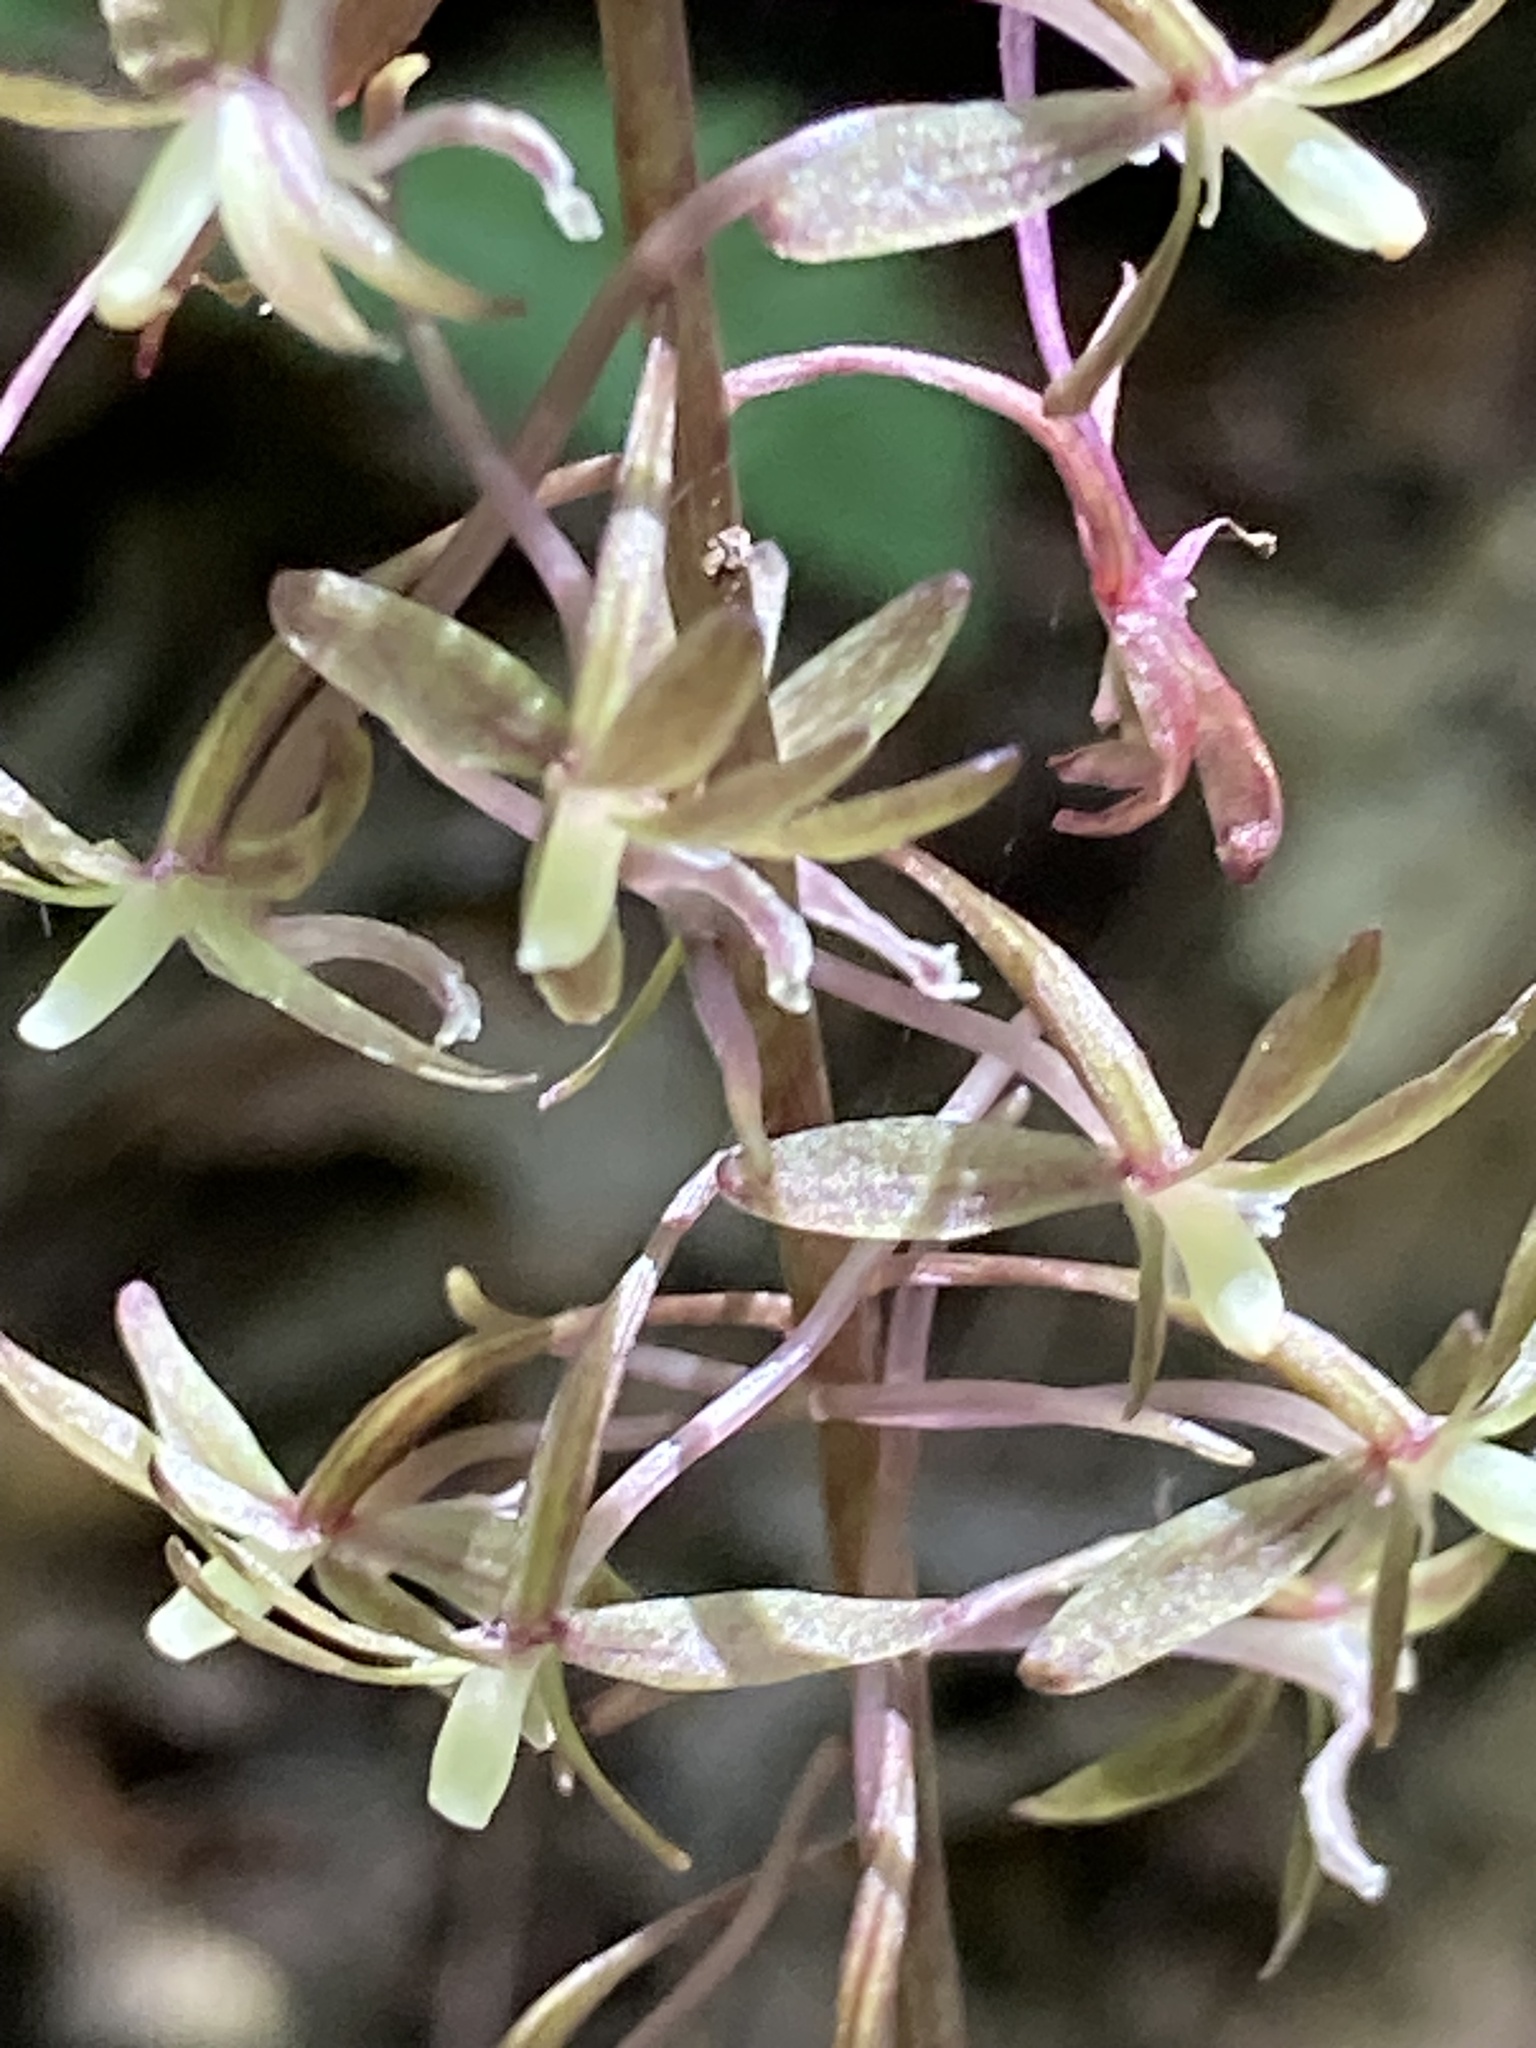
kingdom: Plantae
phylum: Tracheophyta
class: Liliopsida
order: Asparagales
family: Orchidaceae
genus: Tipularia
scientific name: Tipularia discolor
